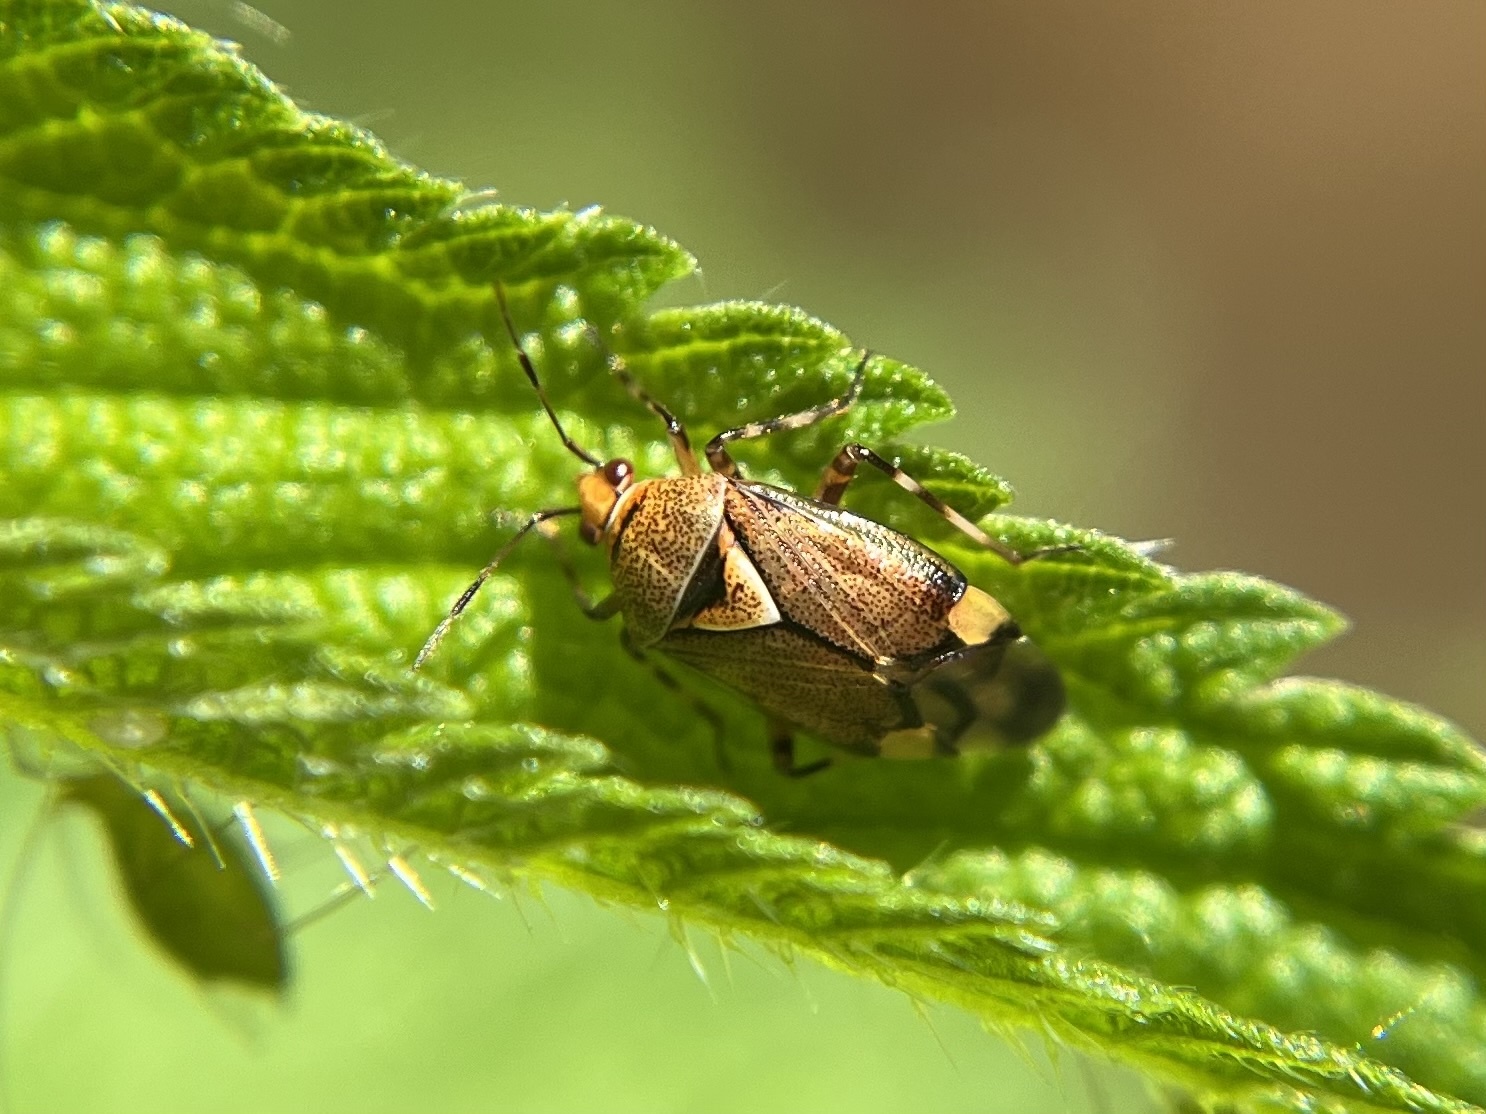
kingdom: Animalia
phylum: Arthropoda
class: Insecta
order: Hemiptera
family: Miridae
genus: Deraeocoris
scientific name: Deraeocoris flavilinea
